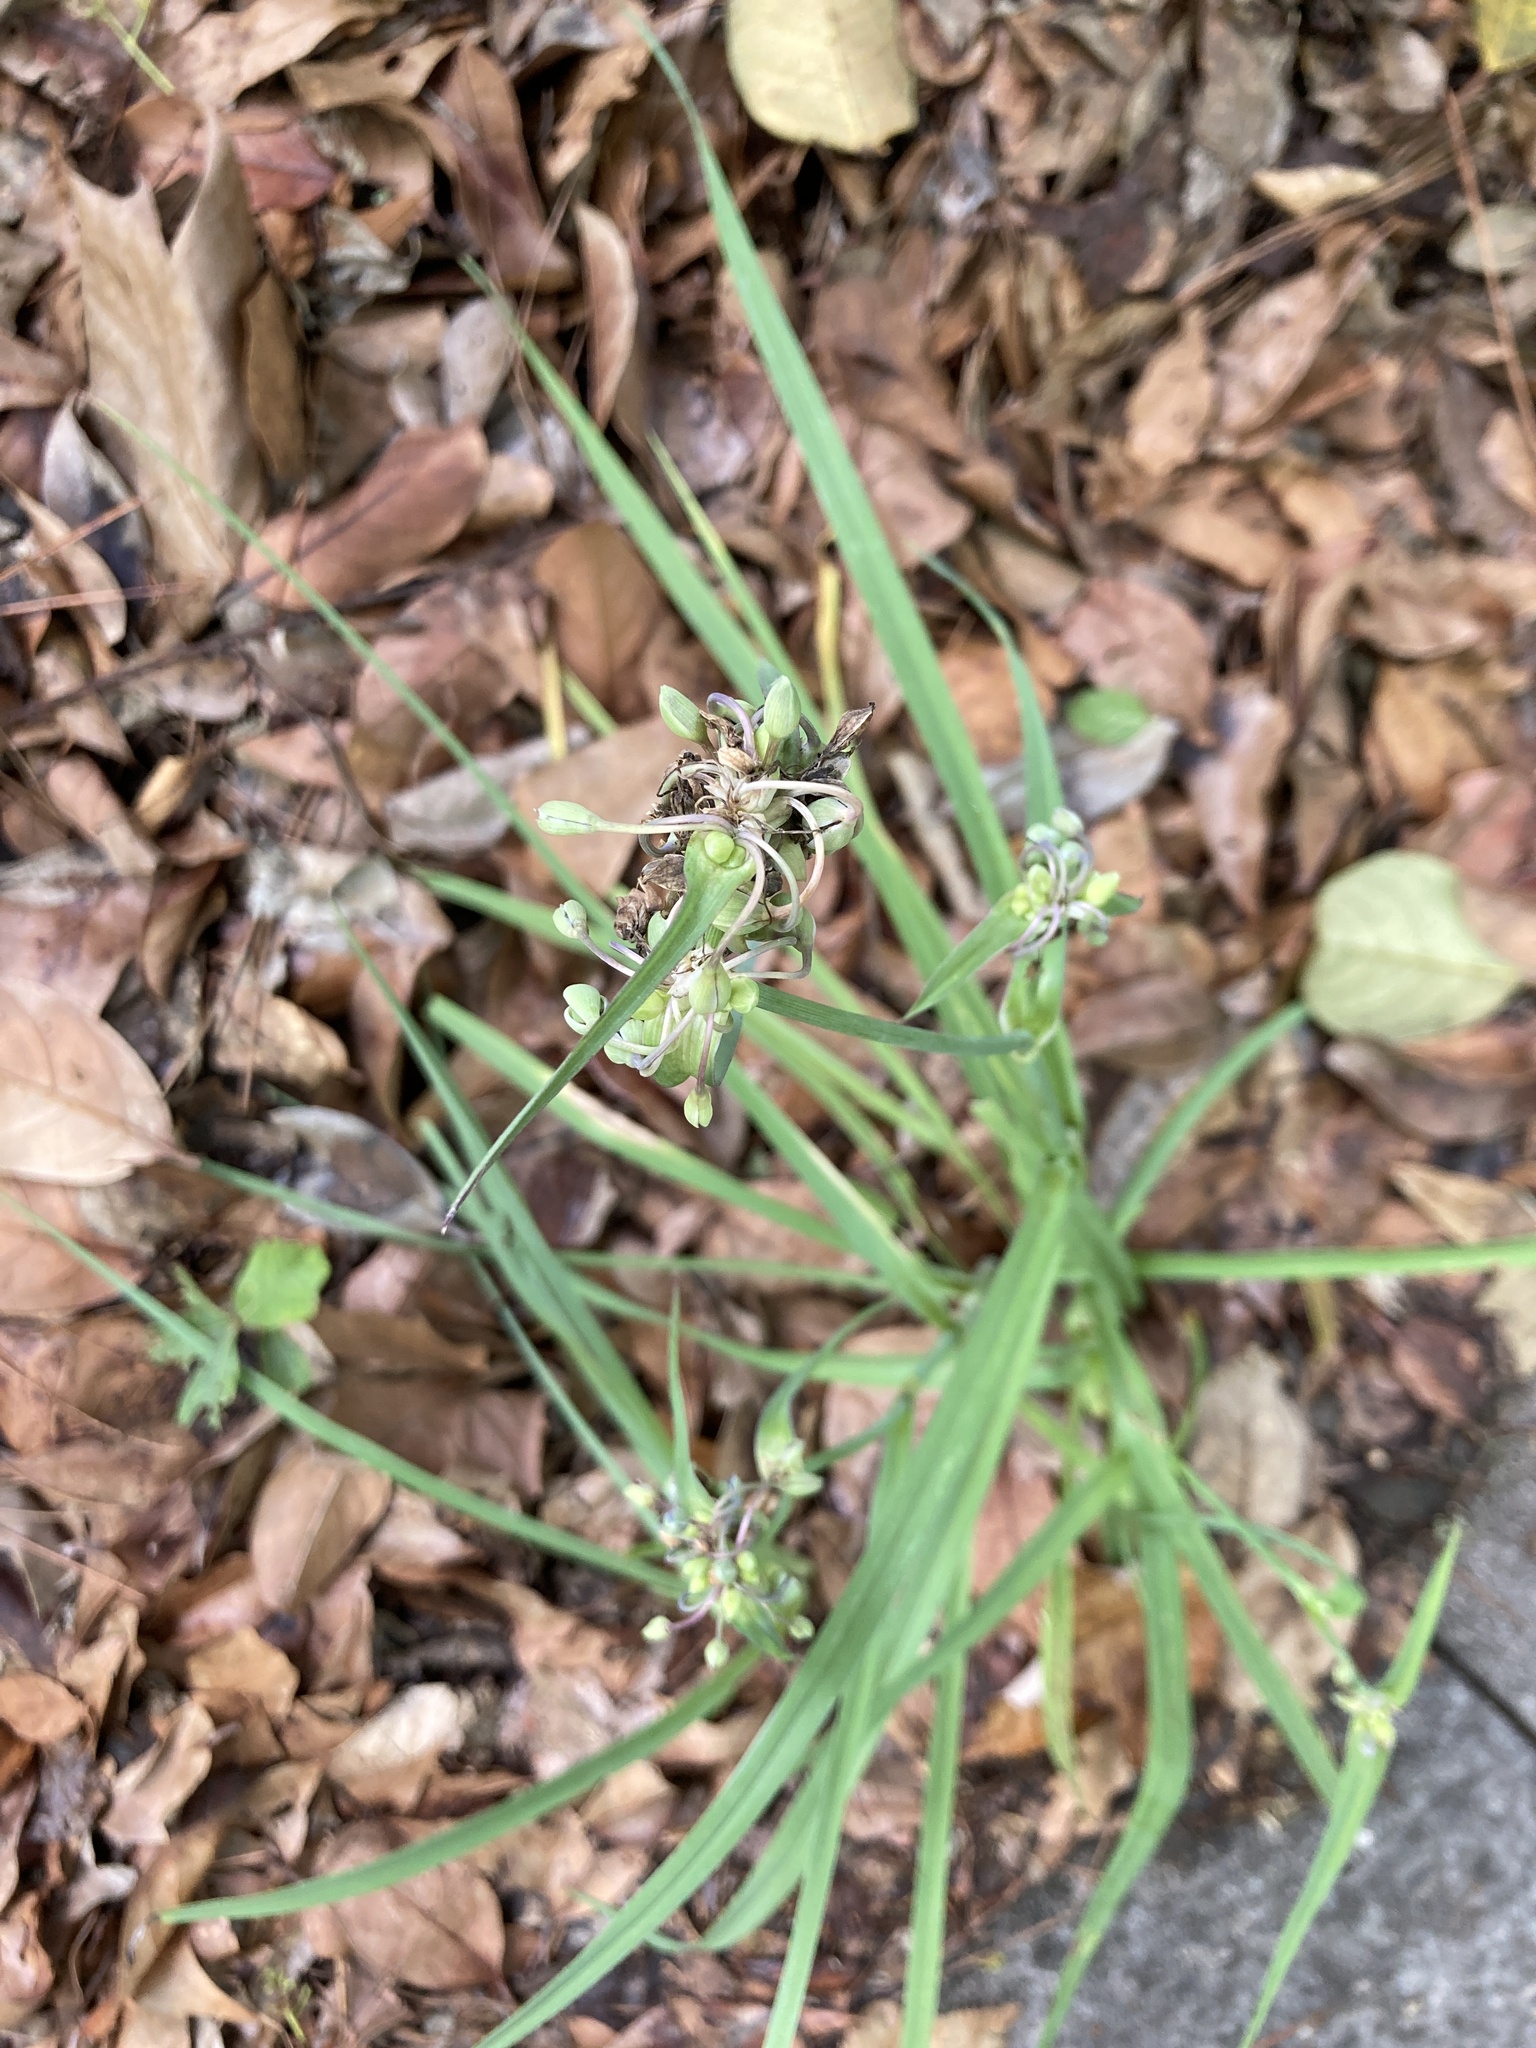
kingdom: Plantae
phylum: Tracheophyta
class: Liliopsida
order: Commelinales
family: Commelinaceae
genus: Tradescantia
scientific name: Tradescantia ohiensis
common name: Ohio spiderwort
